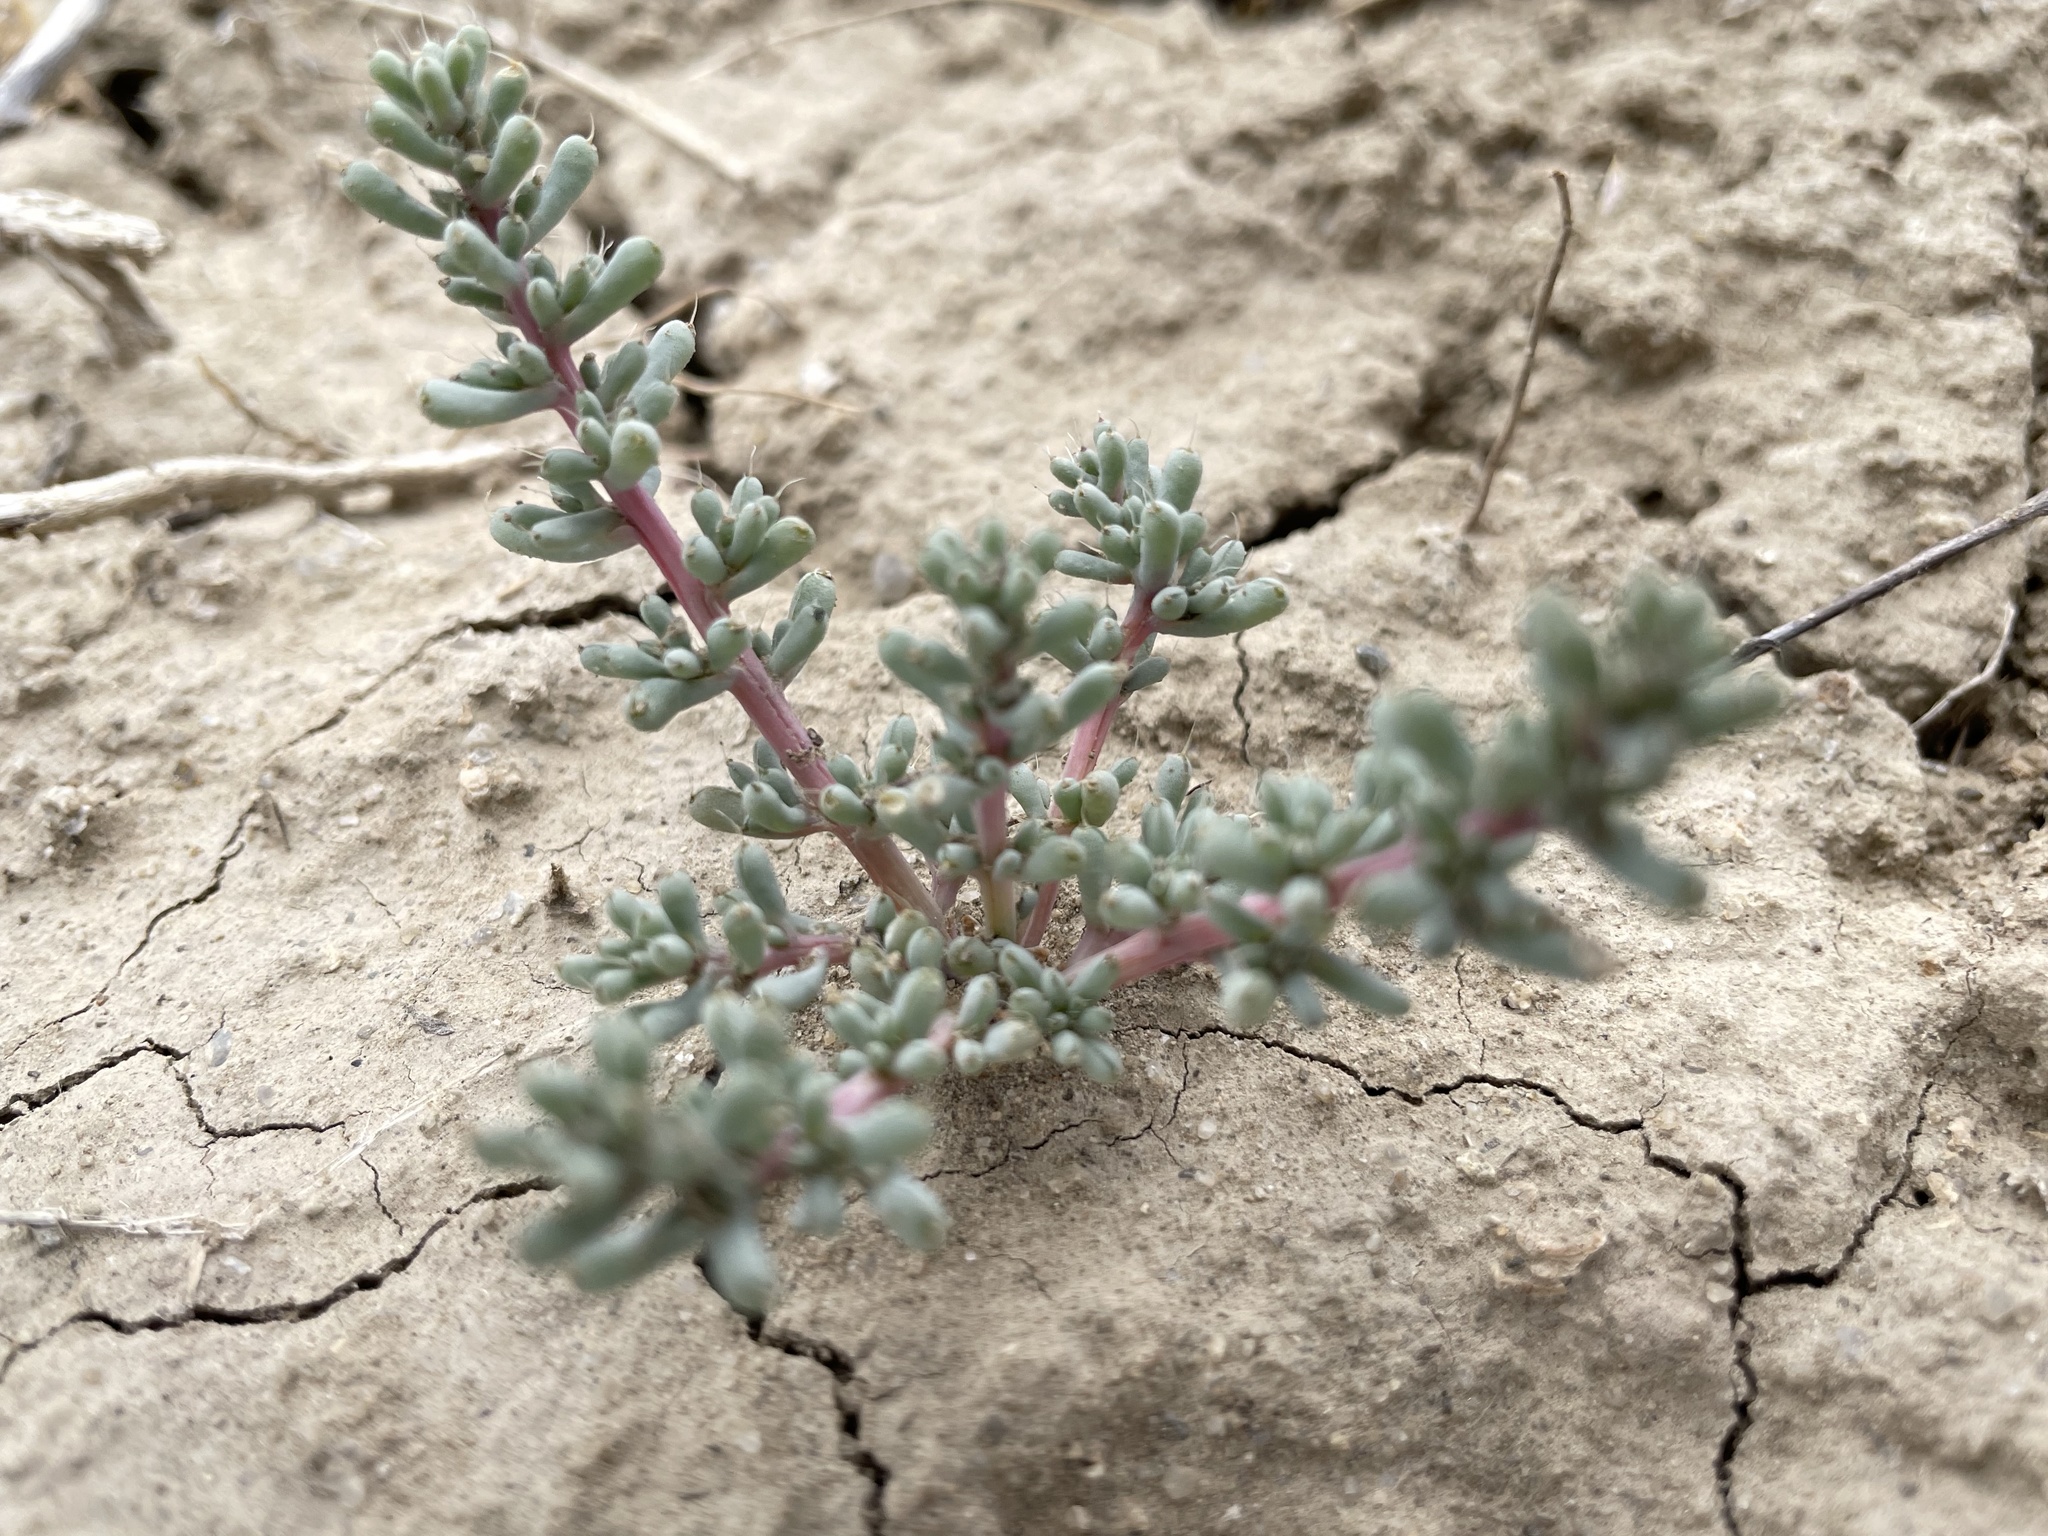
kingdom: Plantae
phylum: Tracheophyta
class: Magnoliopsida
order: Caryophyllales
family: Amaranthaceae
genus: Halogeton
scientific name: Halogeton glomeratus
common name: Saltlover
